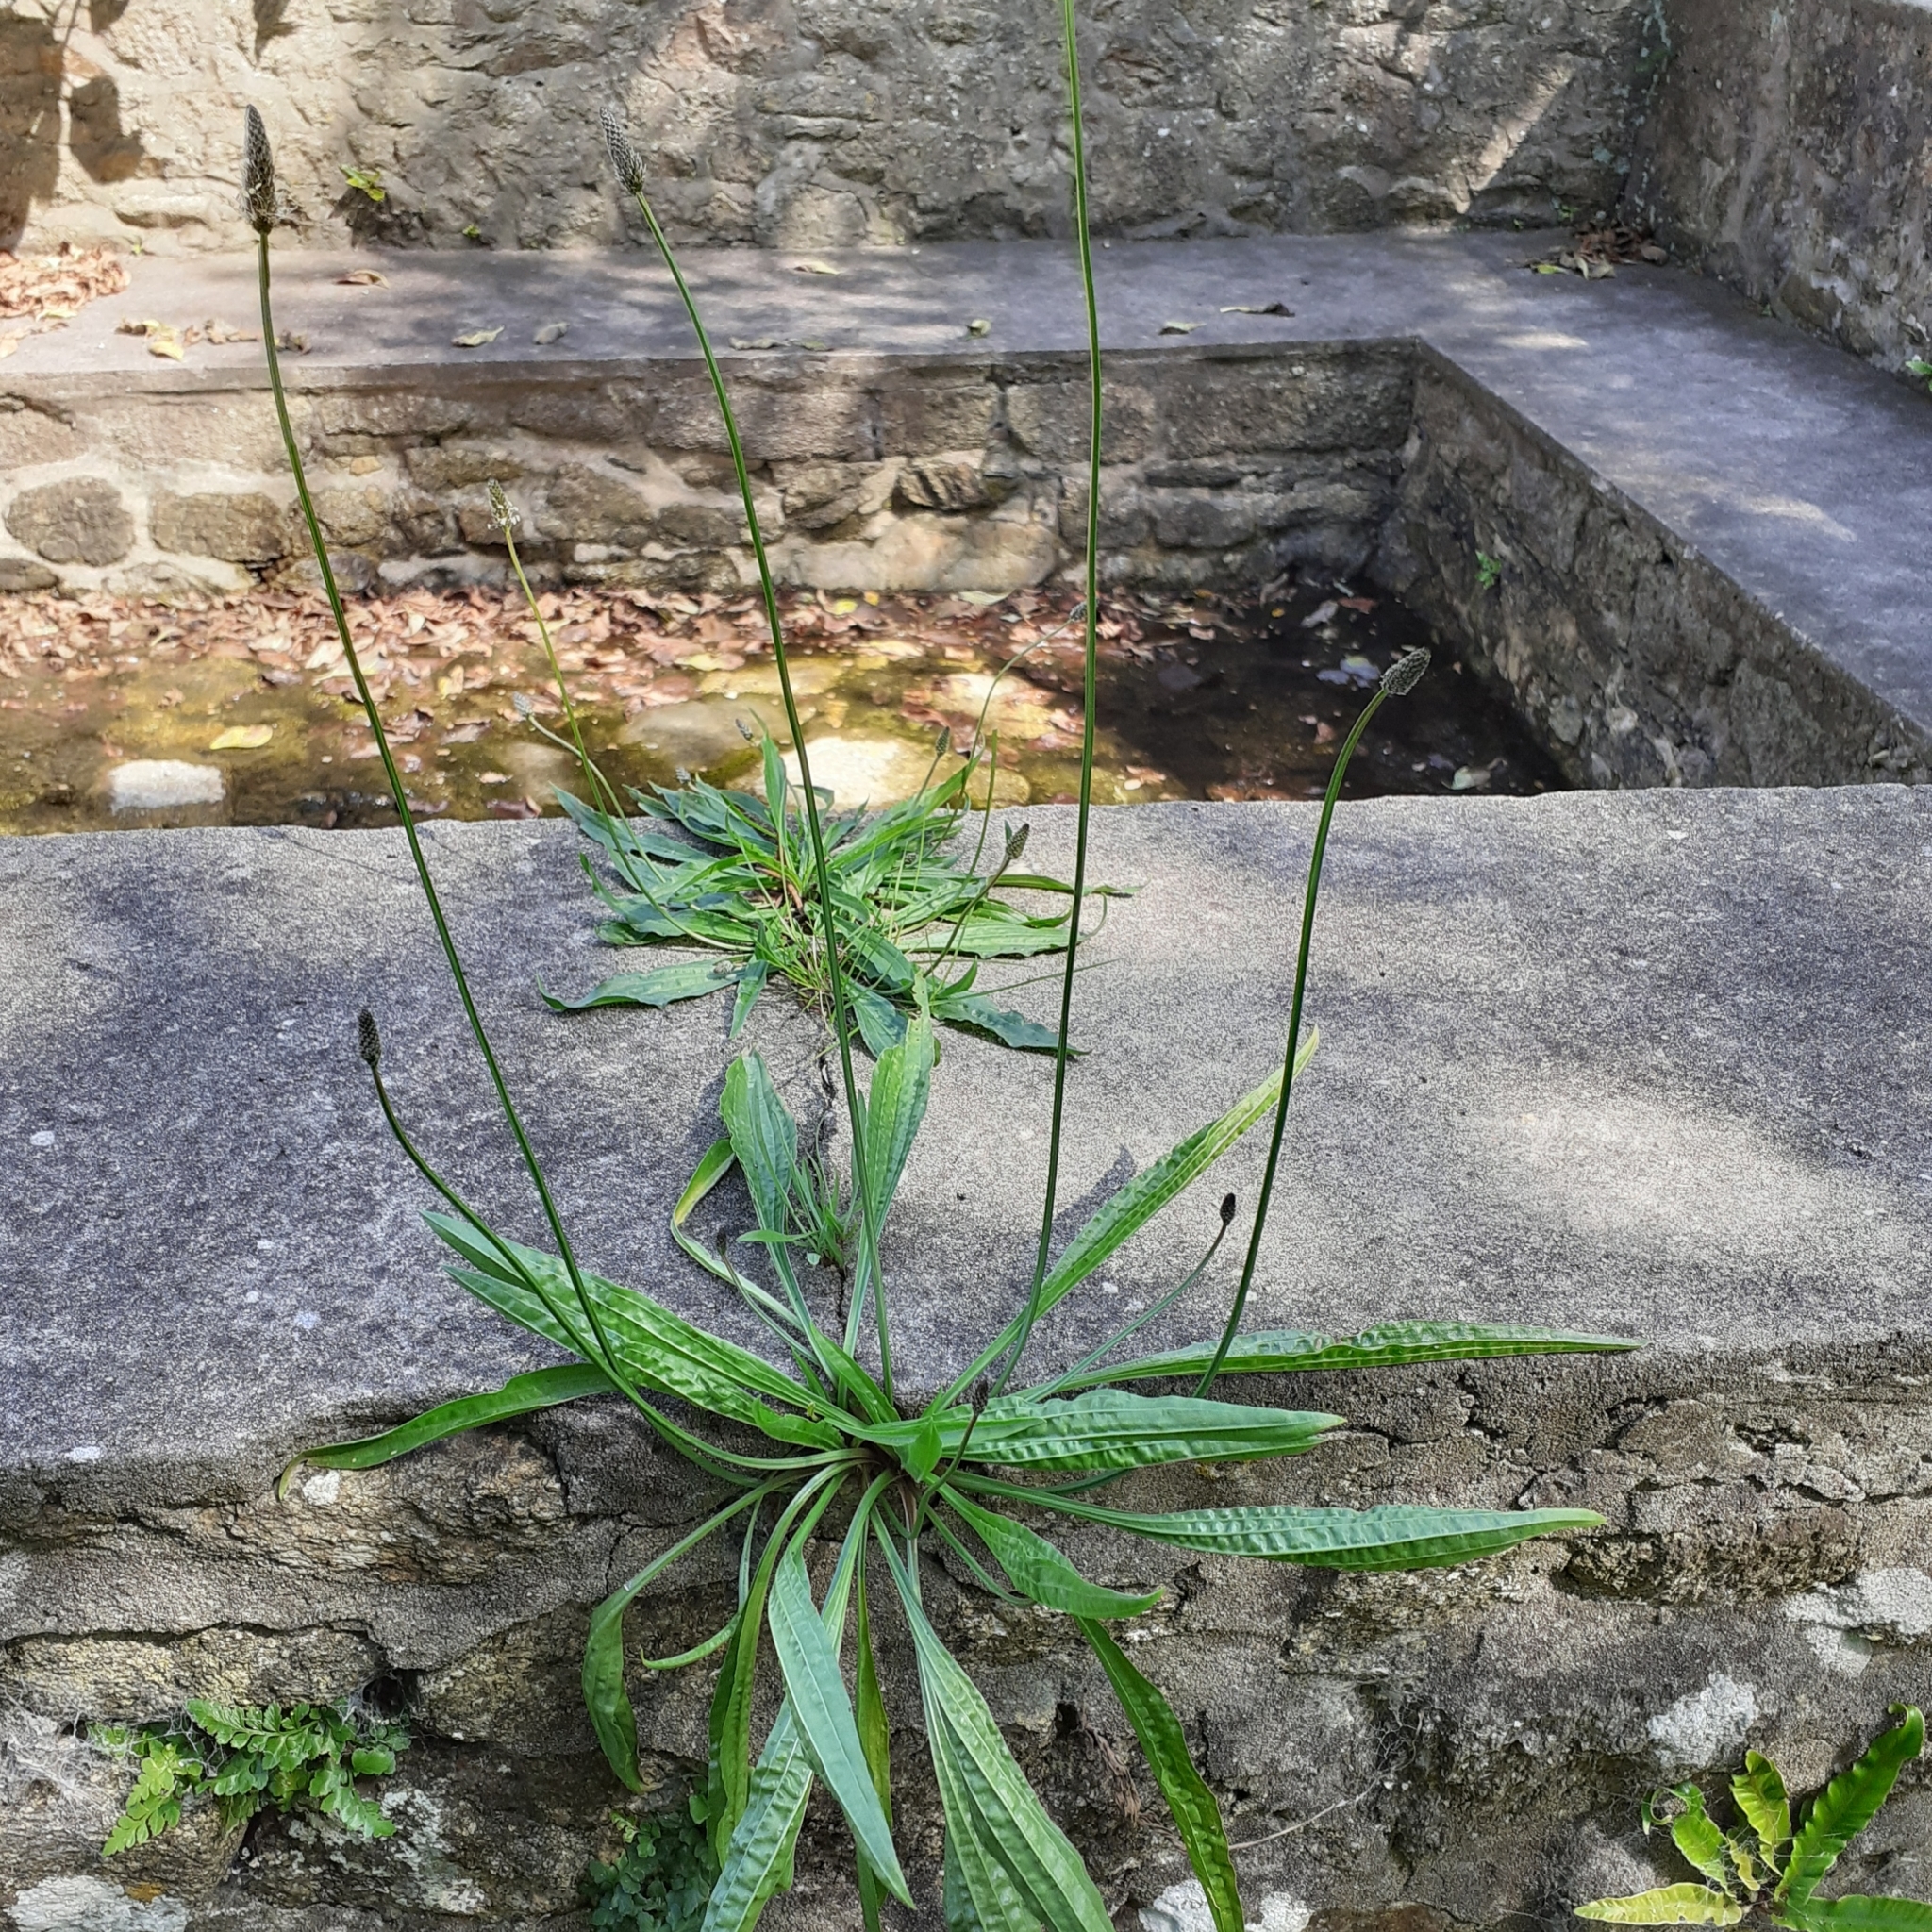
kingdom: Plantae
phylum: Tracheophyta
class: Magnoliopsida
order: Lamiales
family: Plantaginaceae
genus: Plantago
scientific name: Plantago lanceolata
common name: Ribwort plantain
